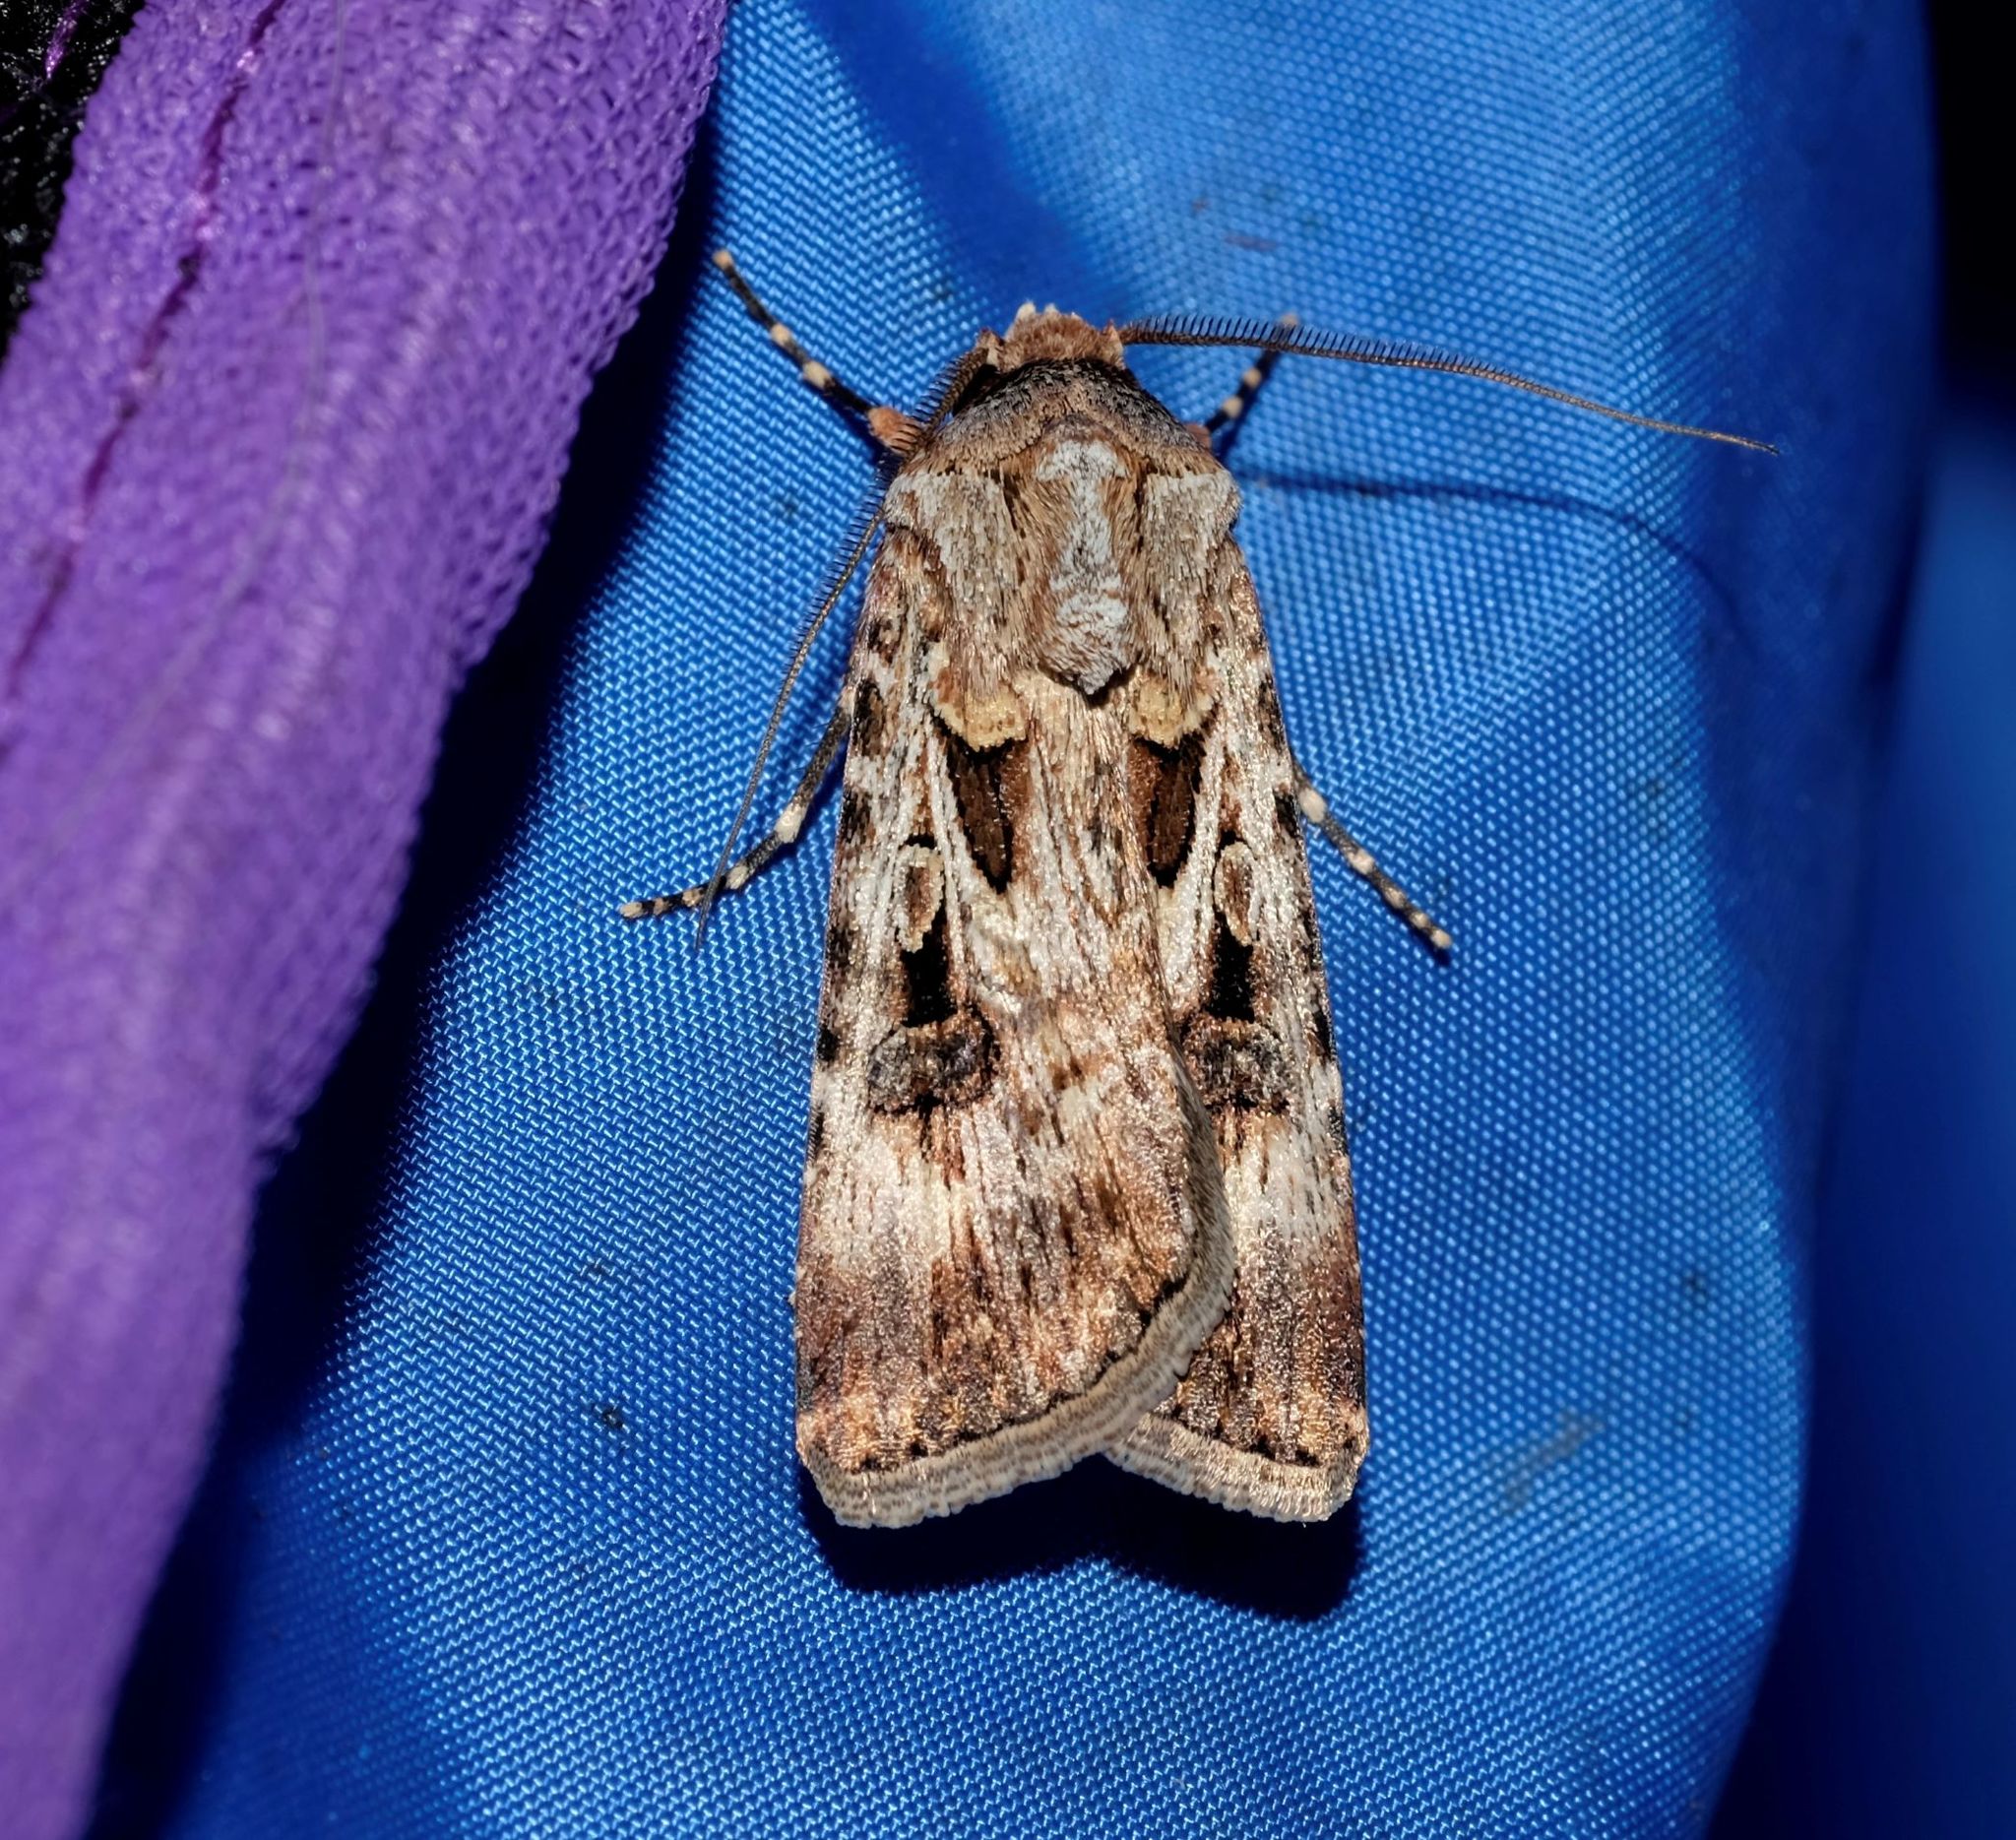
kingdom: Animalia
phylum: Arthropoda
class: Insecta
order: Lepidoptera
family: Noctuidae
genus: Agrotis
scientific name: Agrotis munda
